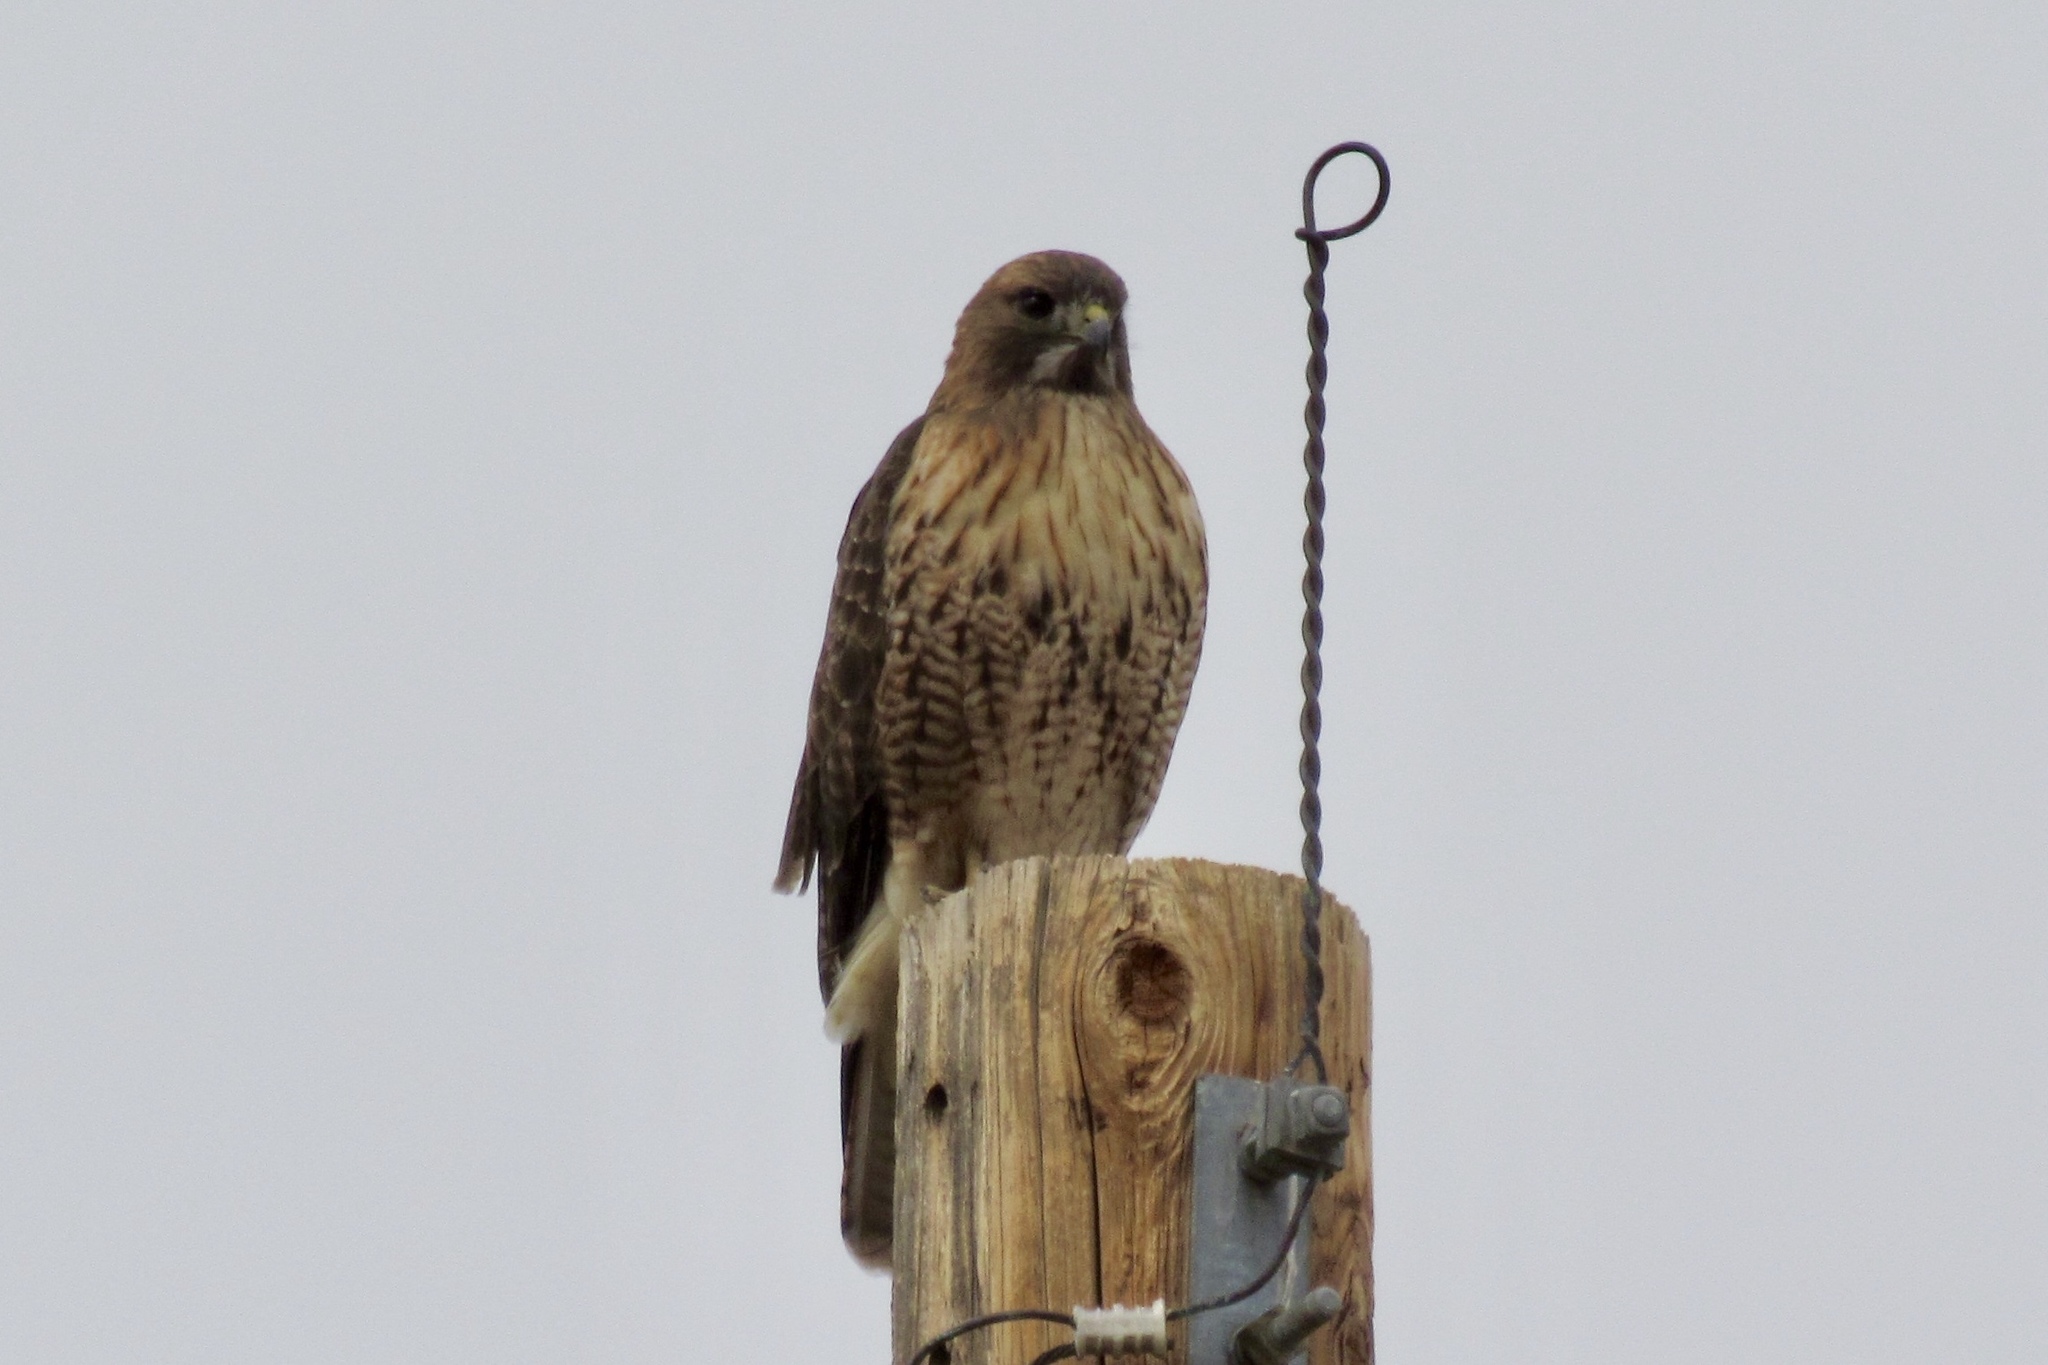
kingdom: Animalia
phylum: Chordata
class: Aves
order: Accipitriformes
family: Accipitridae
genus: Buteo
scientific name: Buteo jamaicensis
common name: Red-tailed hawk
